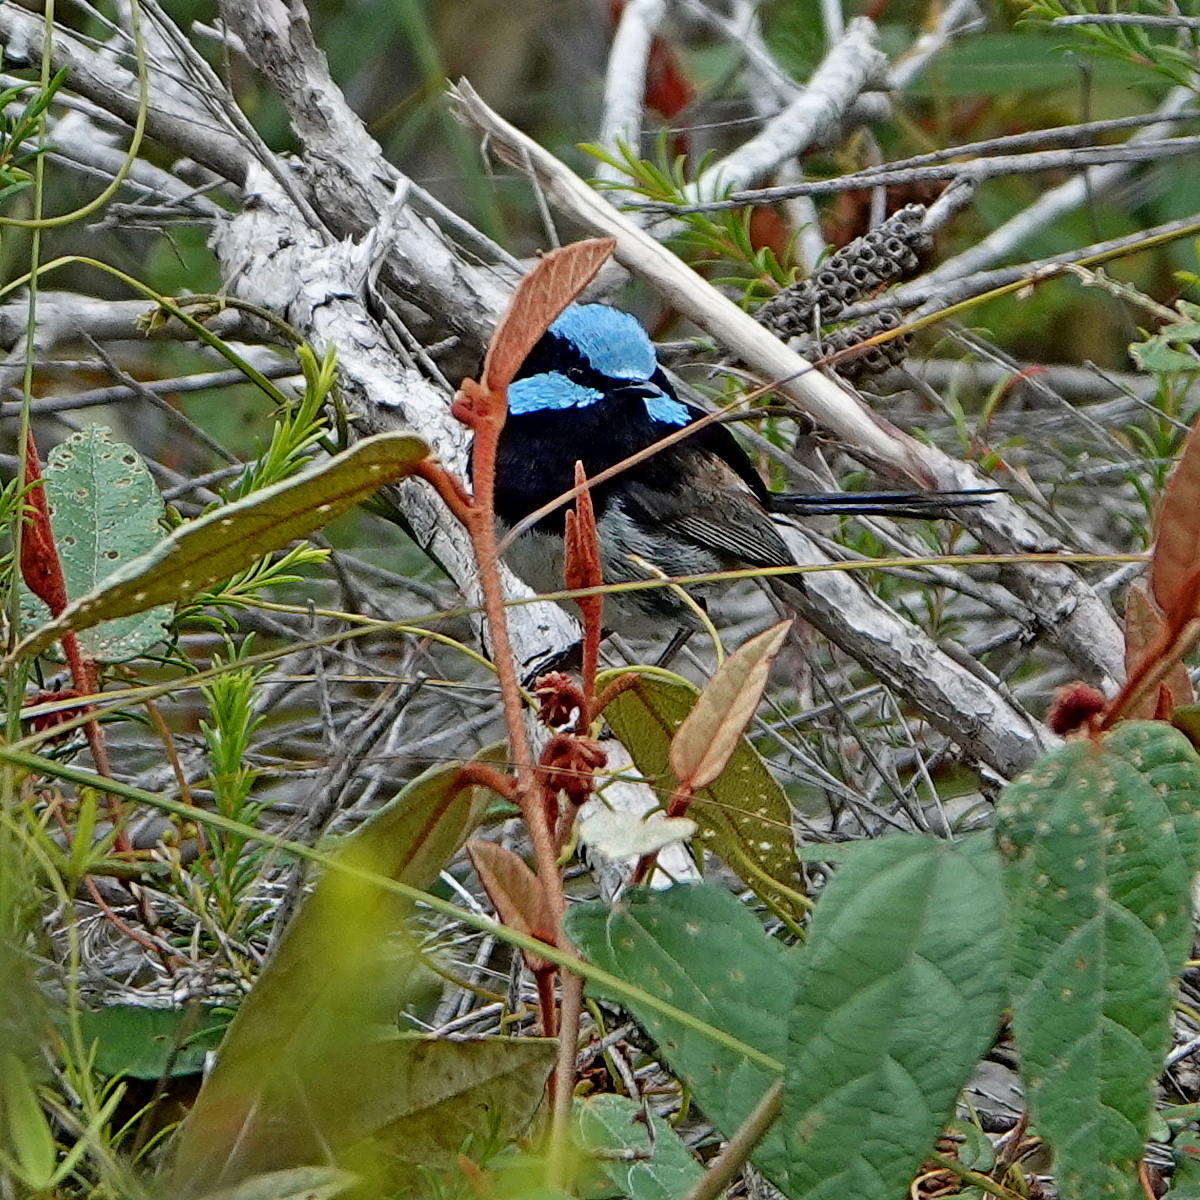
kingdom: Animalia
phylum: Chordata
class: Aves
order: Passeriformes
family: Maluridae
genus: Malurus
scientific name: Malurus cyaneus
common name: Superb fairywren
